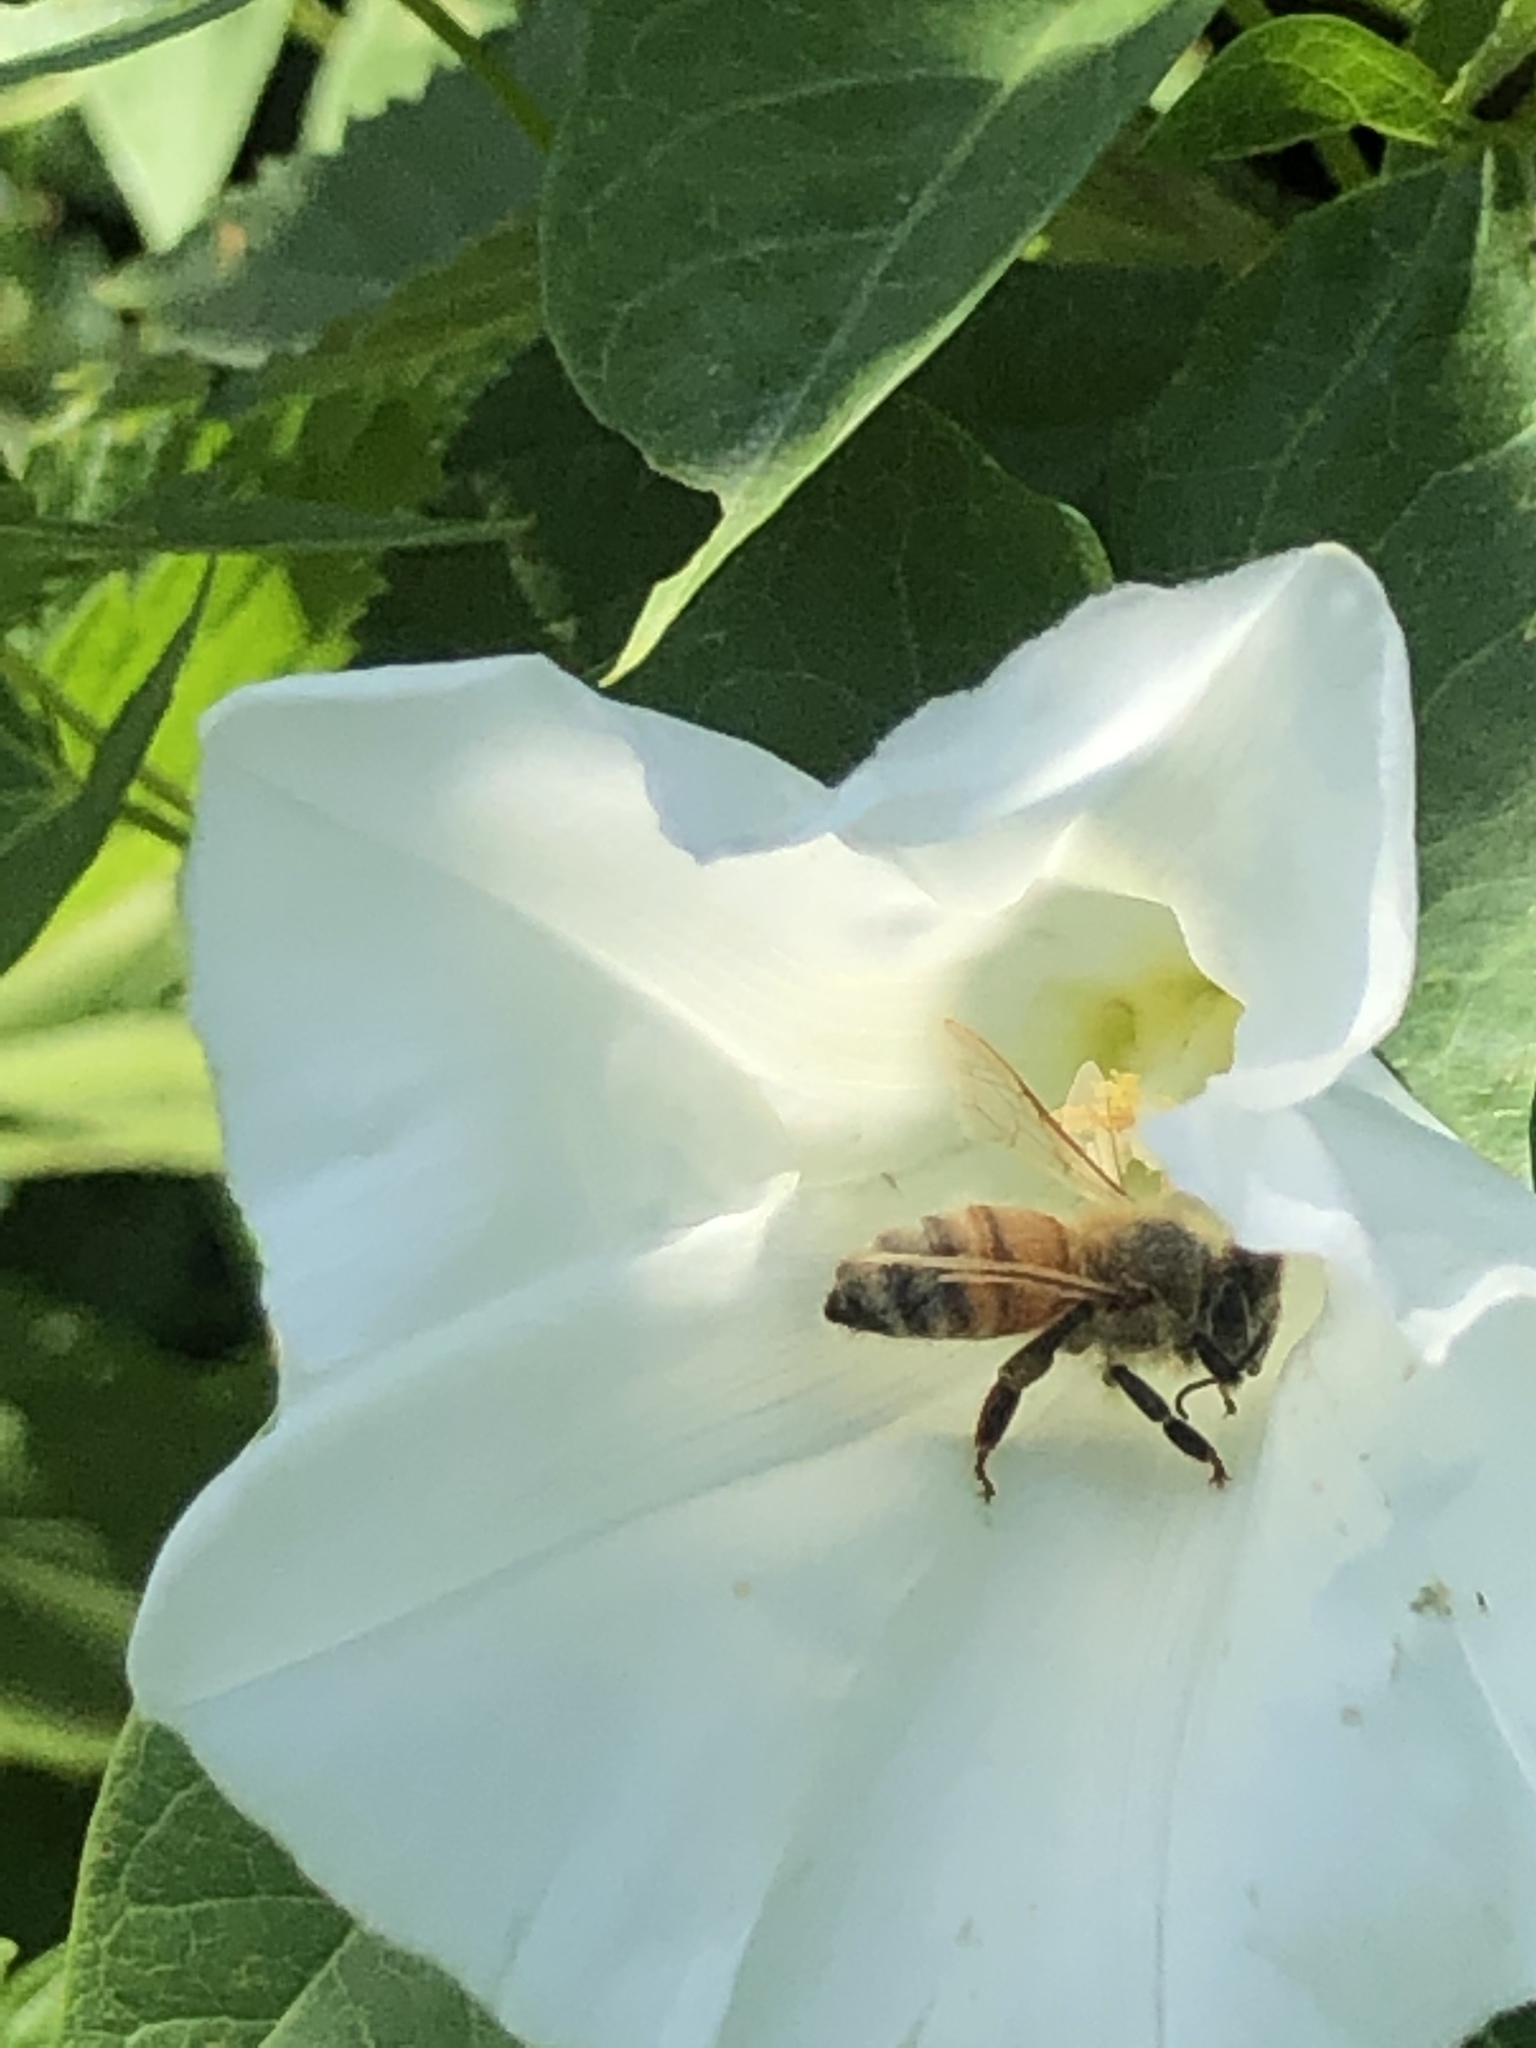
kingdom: Animalia
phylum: Arthropoda
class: Insecta
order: Hymenoptera
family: Apidae
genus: Apis
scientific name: Apis mellifera
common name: Honey bee
